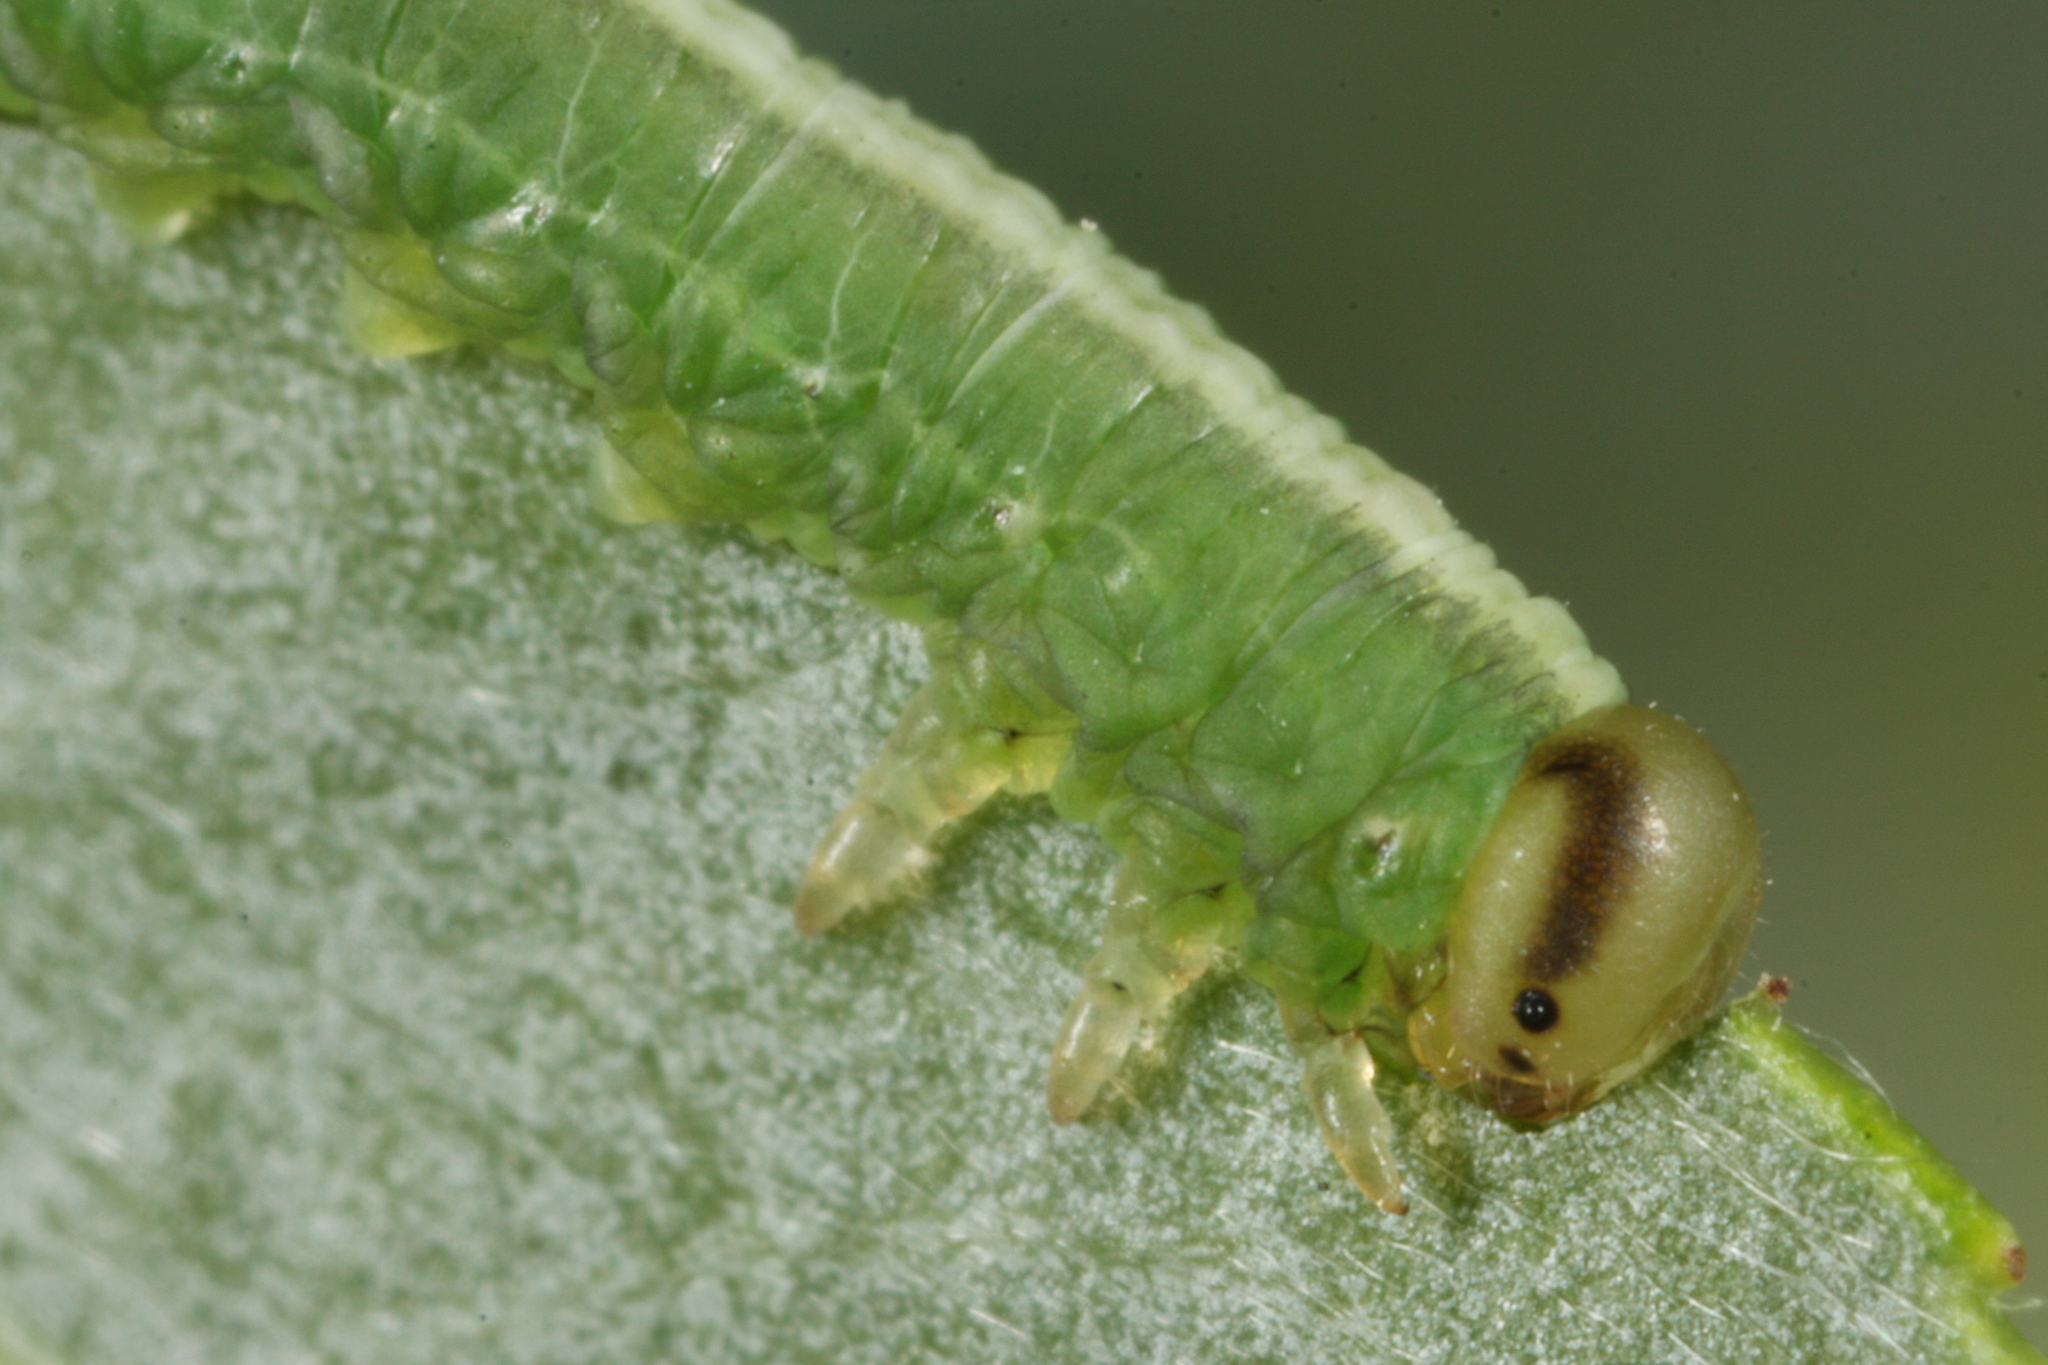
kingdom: Animalia
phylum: Arthropoda
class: Insecta
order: Hymenoptera
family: Tenthredinidae
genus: Euura
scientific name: Euura bergmanni
